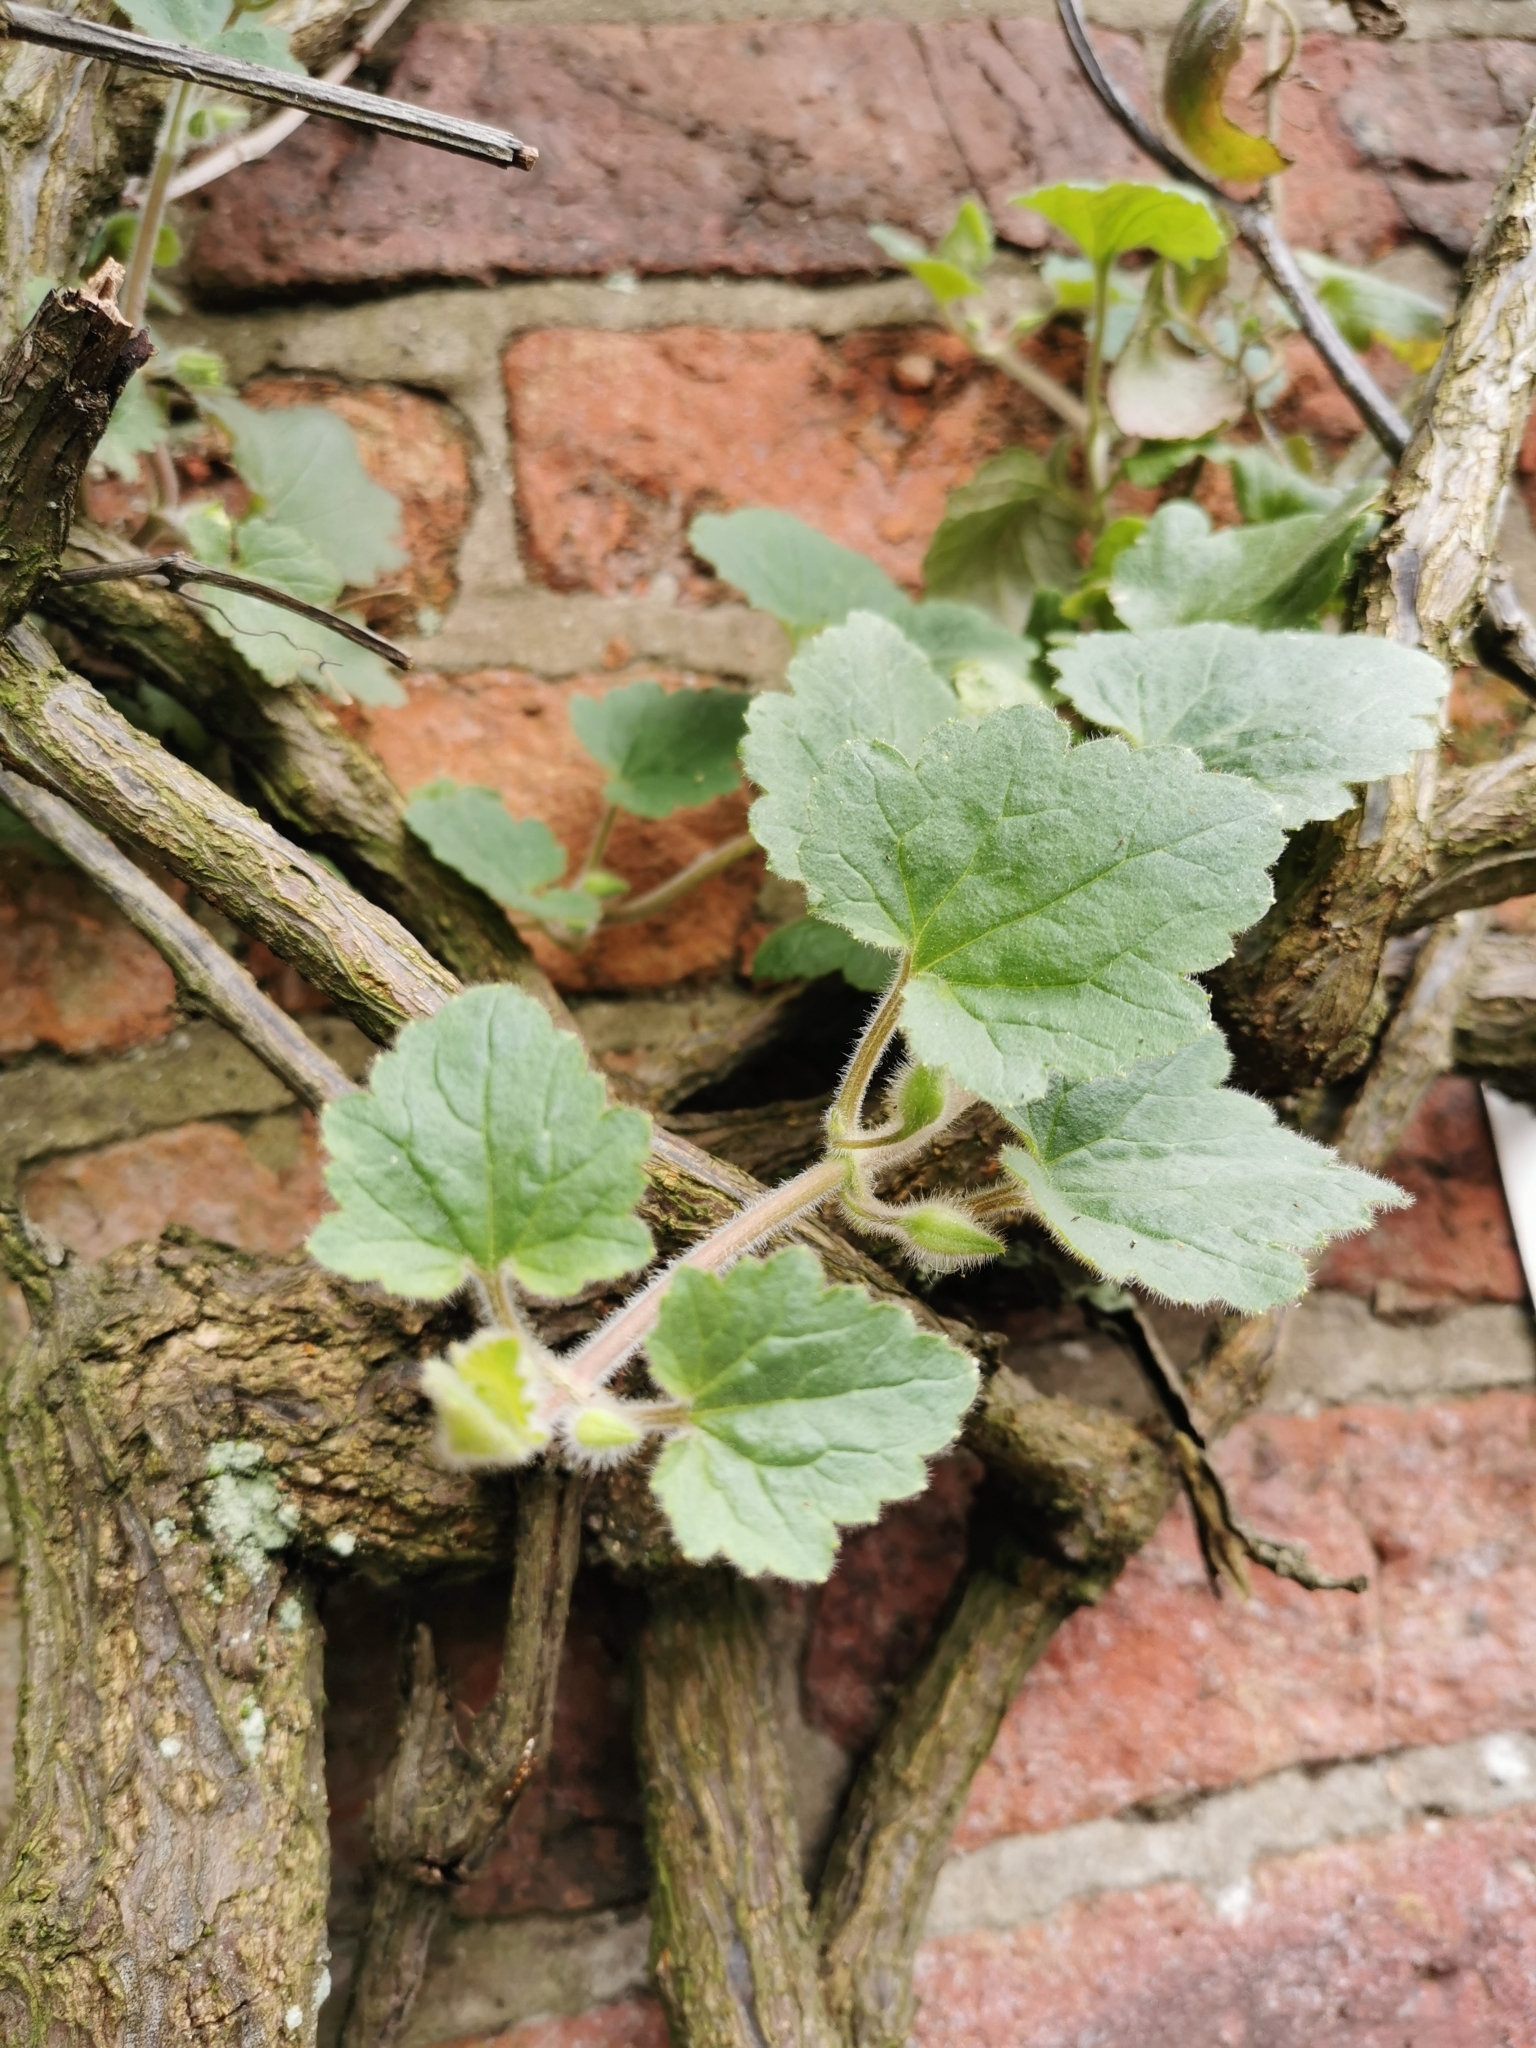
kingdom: Plantae
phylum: Tracheophyta
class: Magnoliopsida
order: Lamiales
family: Plantaginaceae
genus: Asarina
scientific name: Asarina procumbens
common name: Trailing snapdragon
